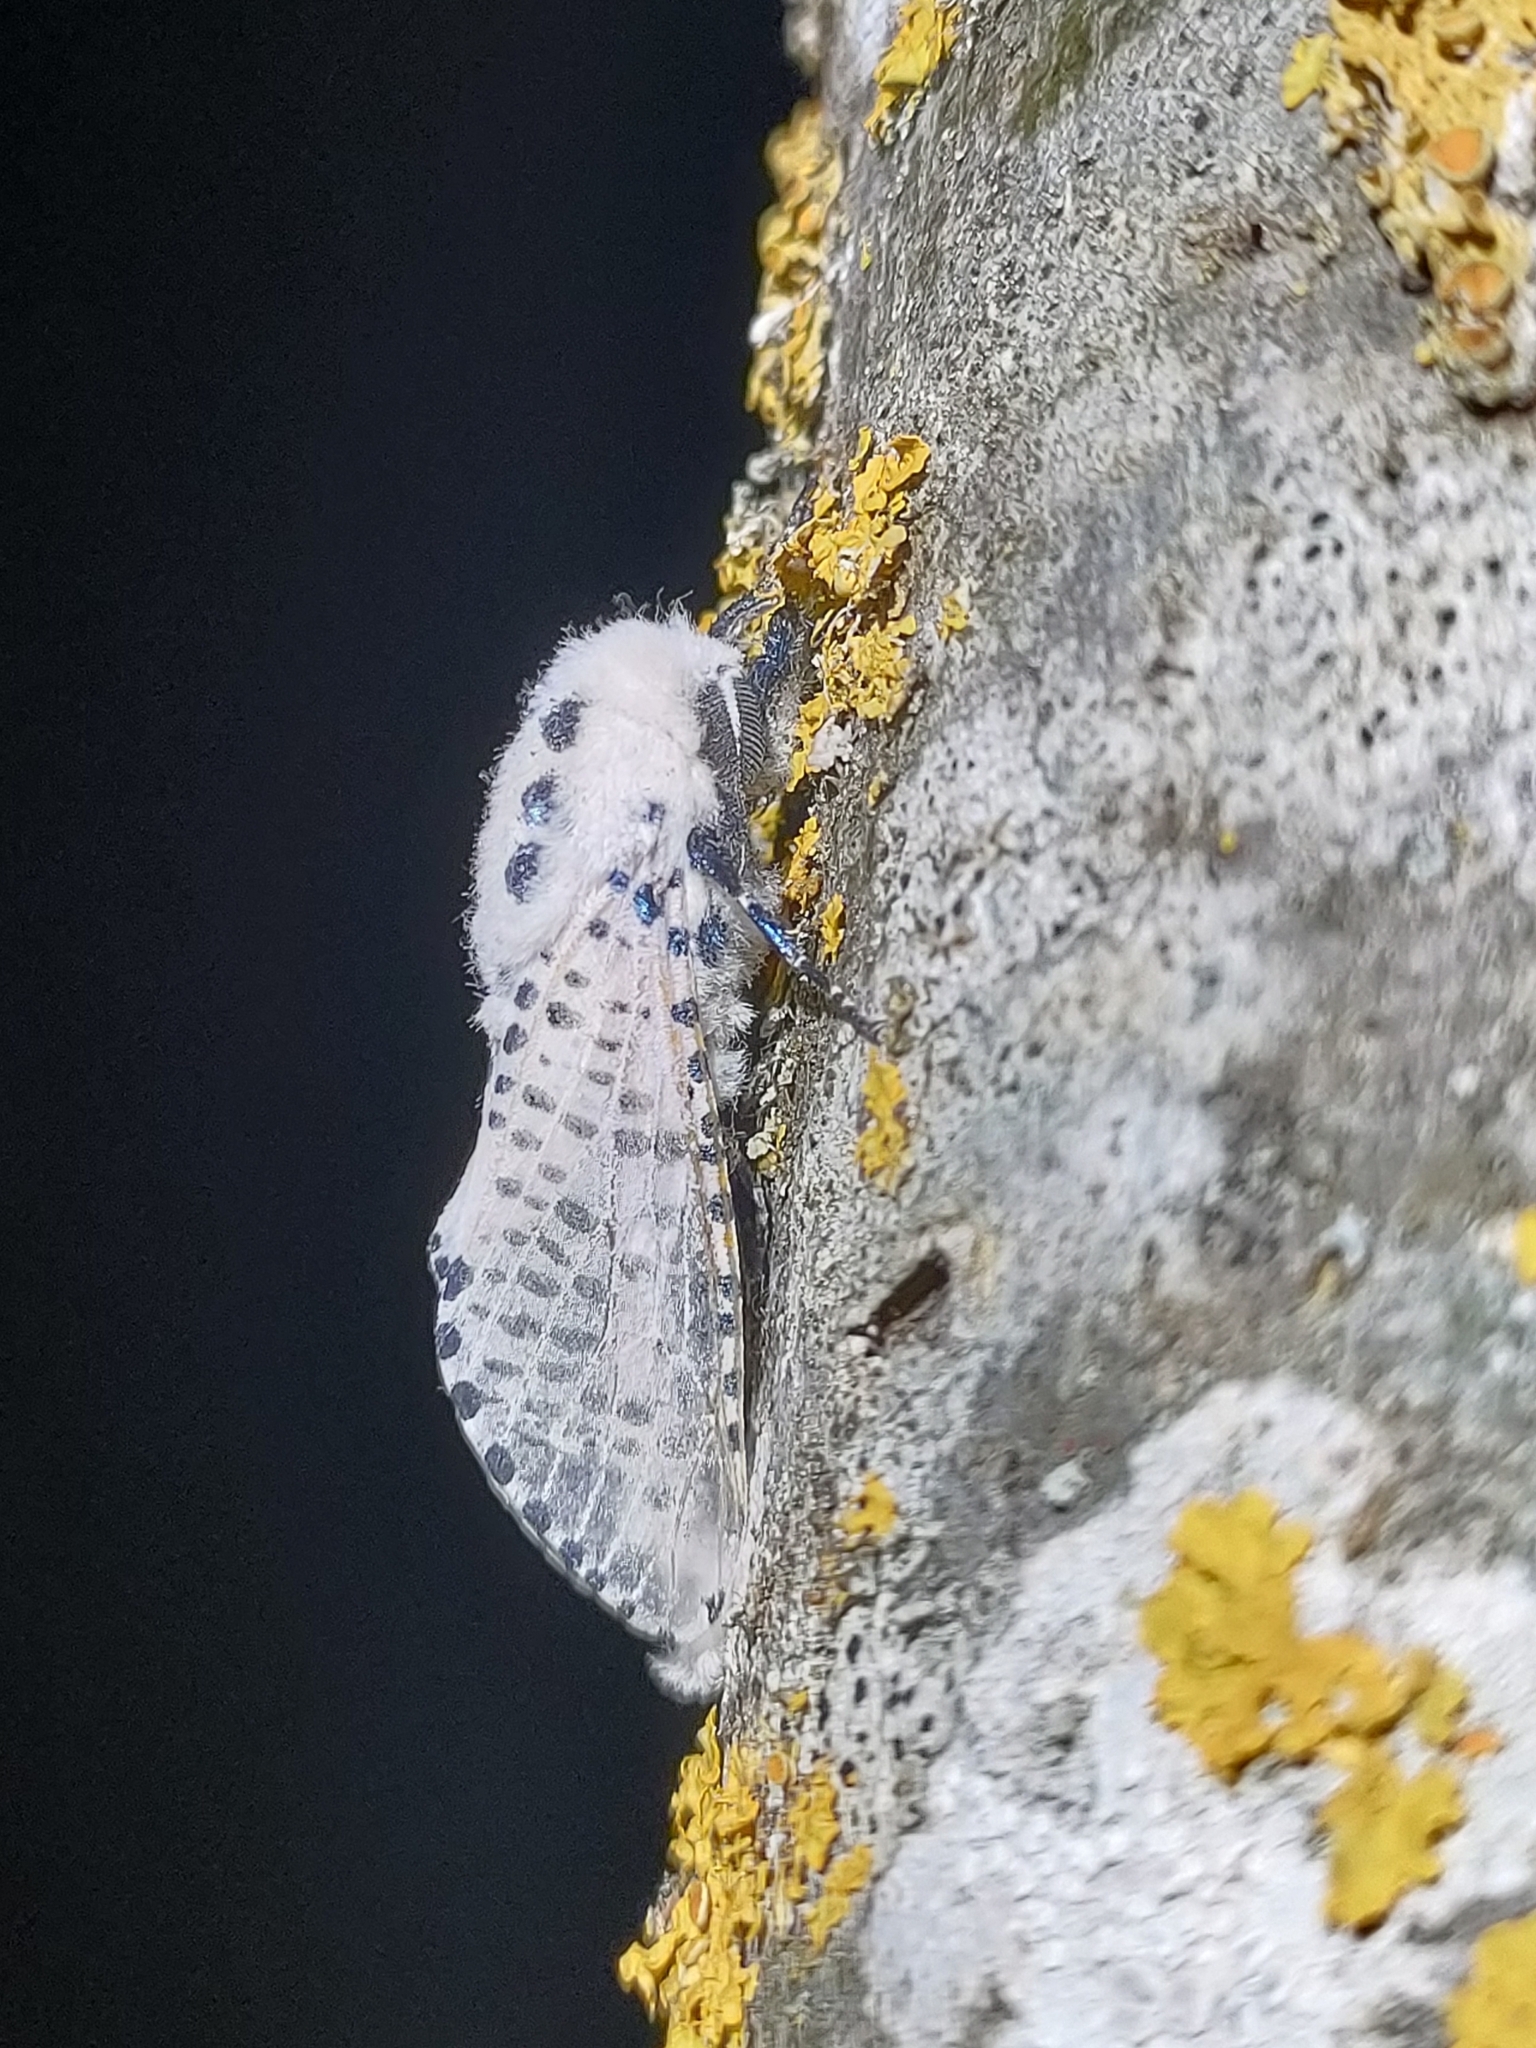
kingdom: Animalia
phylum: Arthropoda
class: Insecta
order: Lepidoptera
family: Cossidae
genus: Zeuzera
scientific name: Zeuzera pyrina
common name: Leopard moth
